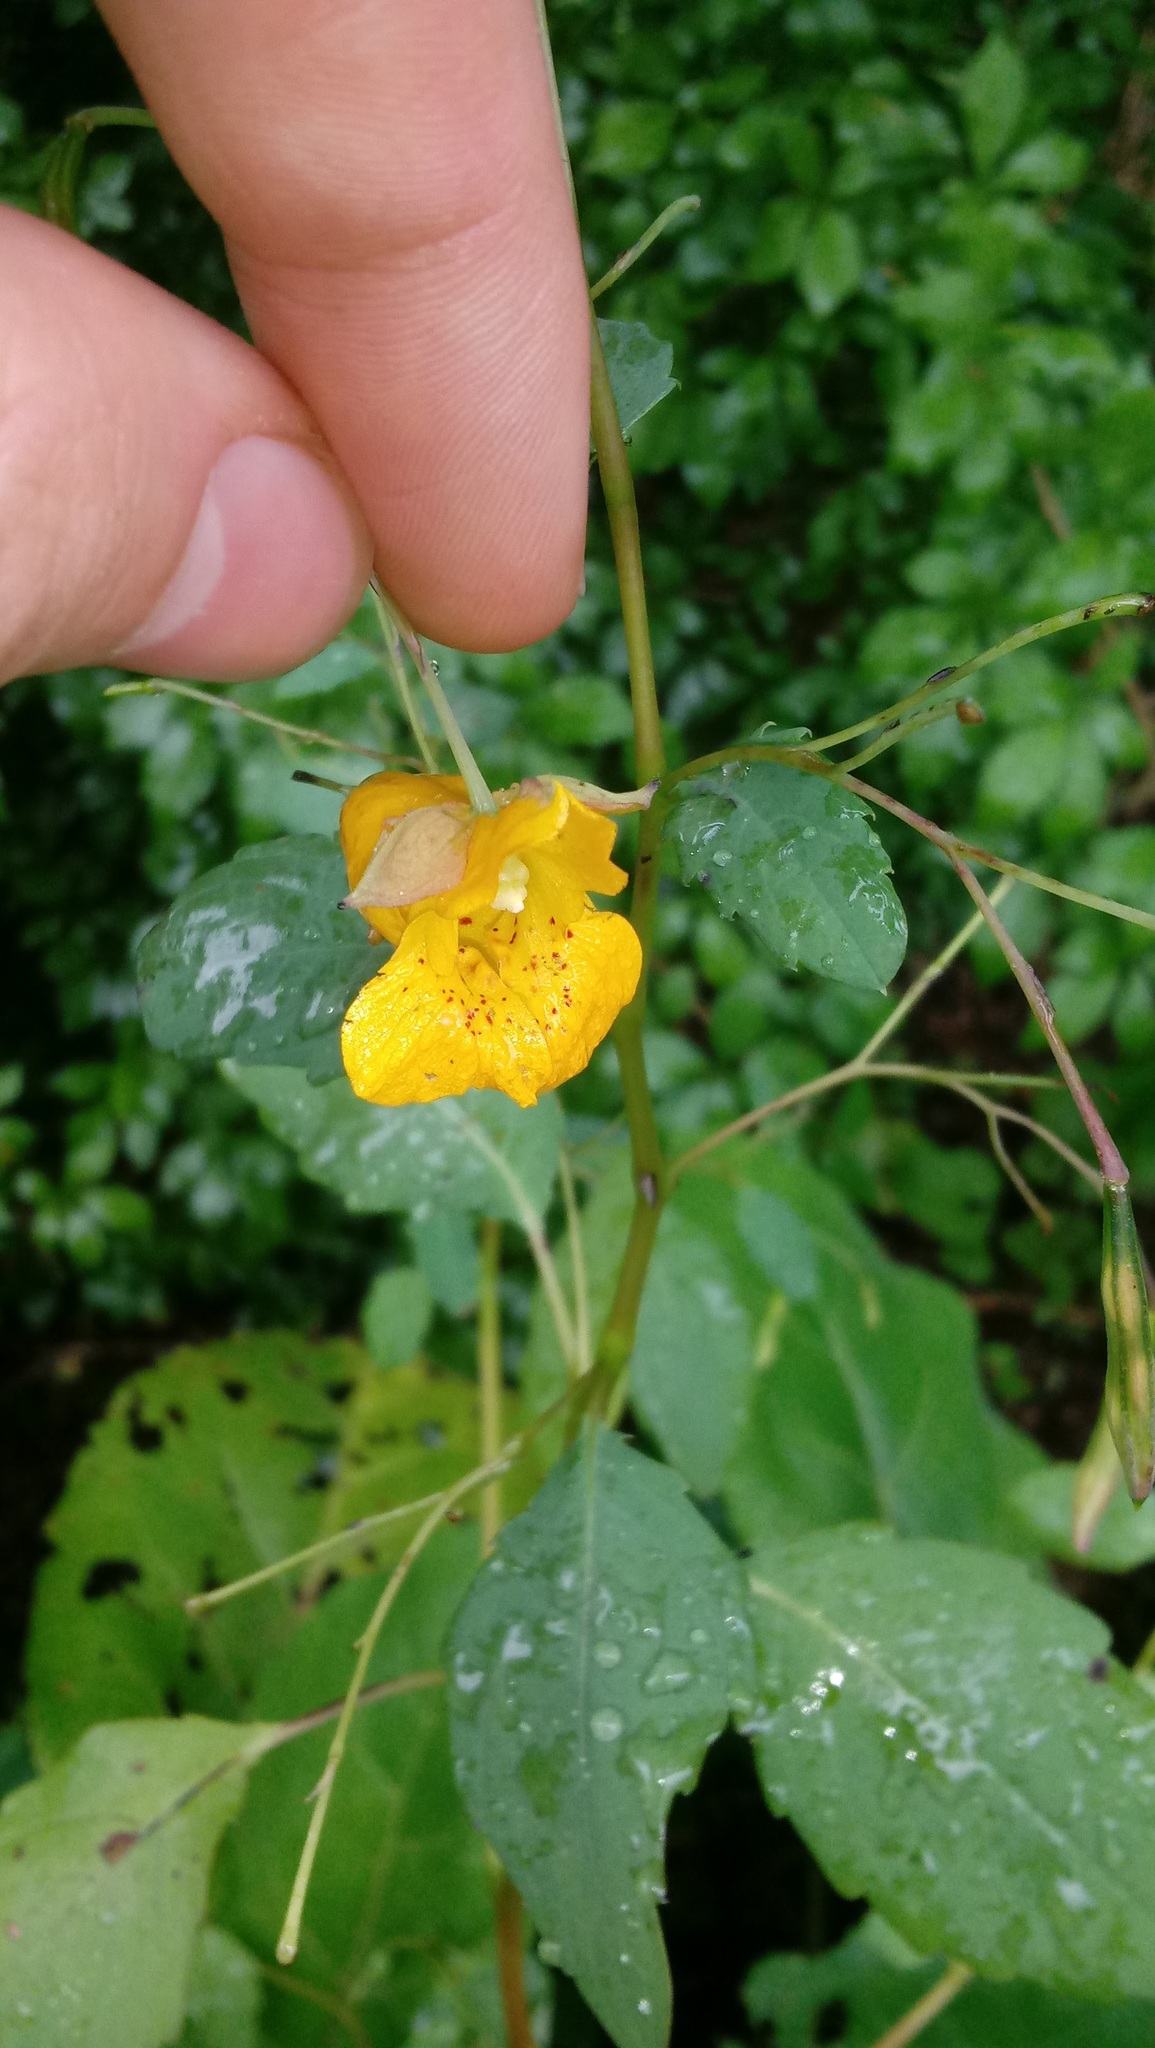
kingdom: Plantae
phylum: Tracheophyta
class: Magnoliopsida
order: Ericales
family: Balsaminaceae
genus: Impatiens
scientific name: Impatiens capensis
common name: Orange balsam
